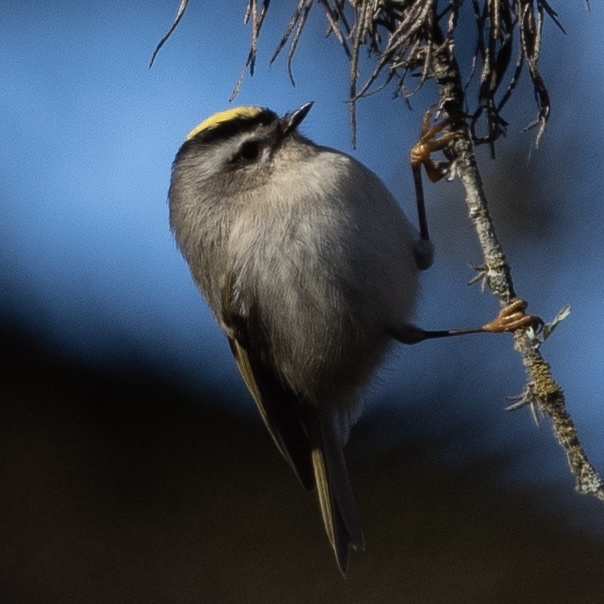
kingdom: Animalia
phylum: Chordata
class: Aves
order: Passeriformes
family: Regulidae
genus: Regulus
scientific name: Regulus satrapa
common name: Golden-crowned kinglet
